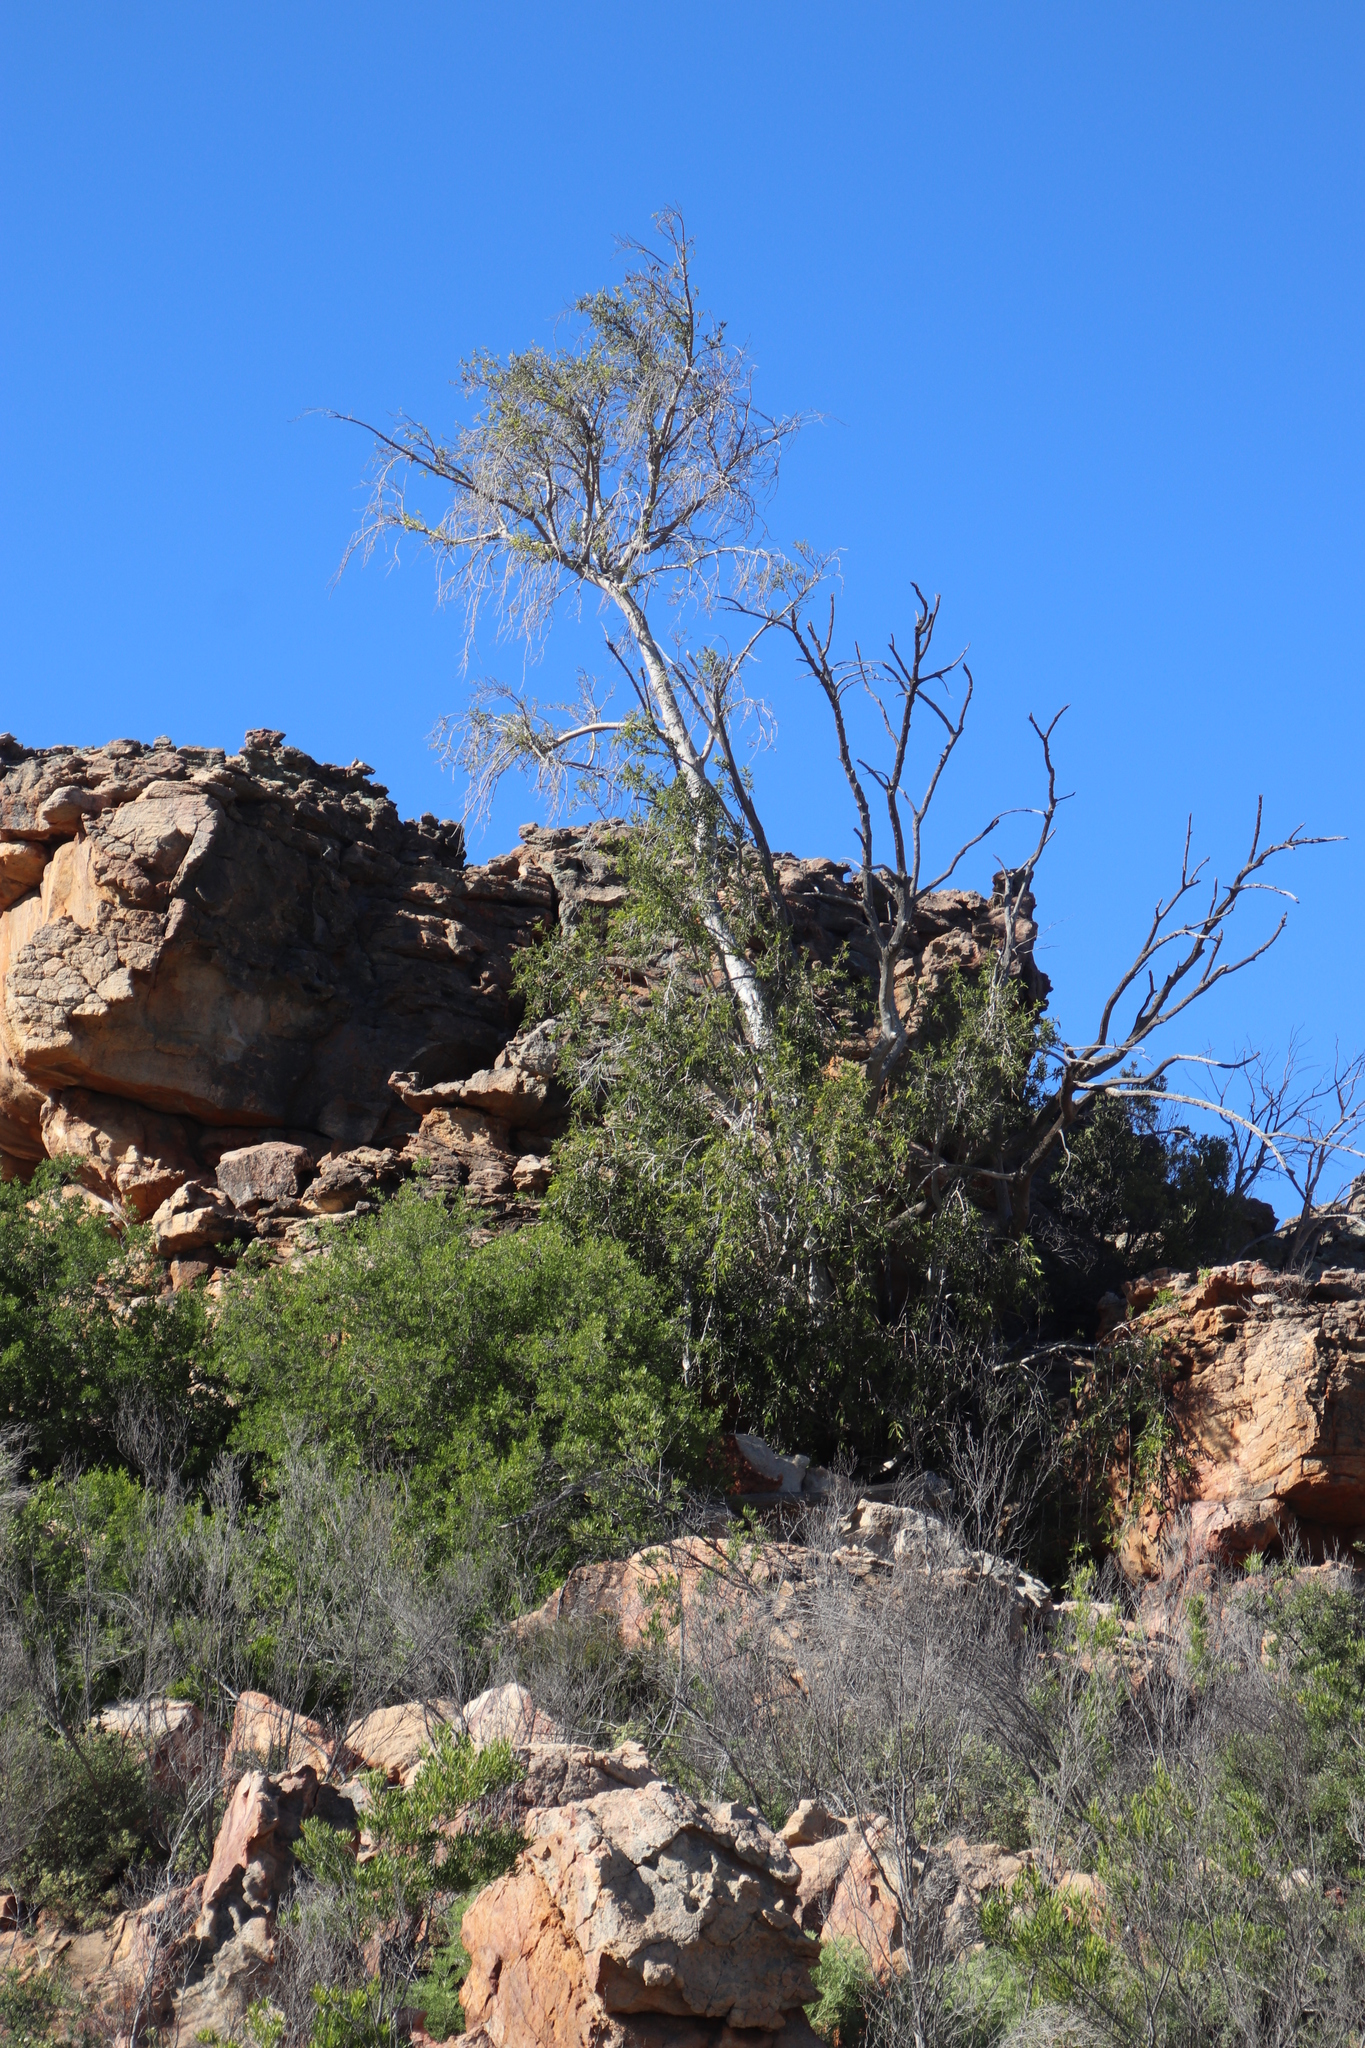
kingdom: Plantae
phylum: Tracheophyta
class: Magnoliopsida
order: Rosales
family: Moraceae
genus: Ficus
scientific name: Ficus cordata
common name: Namaqua rock fig
